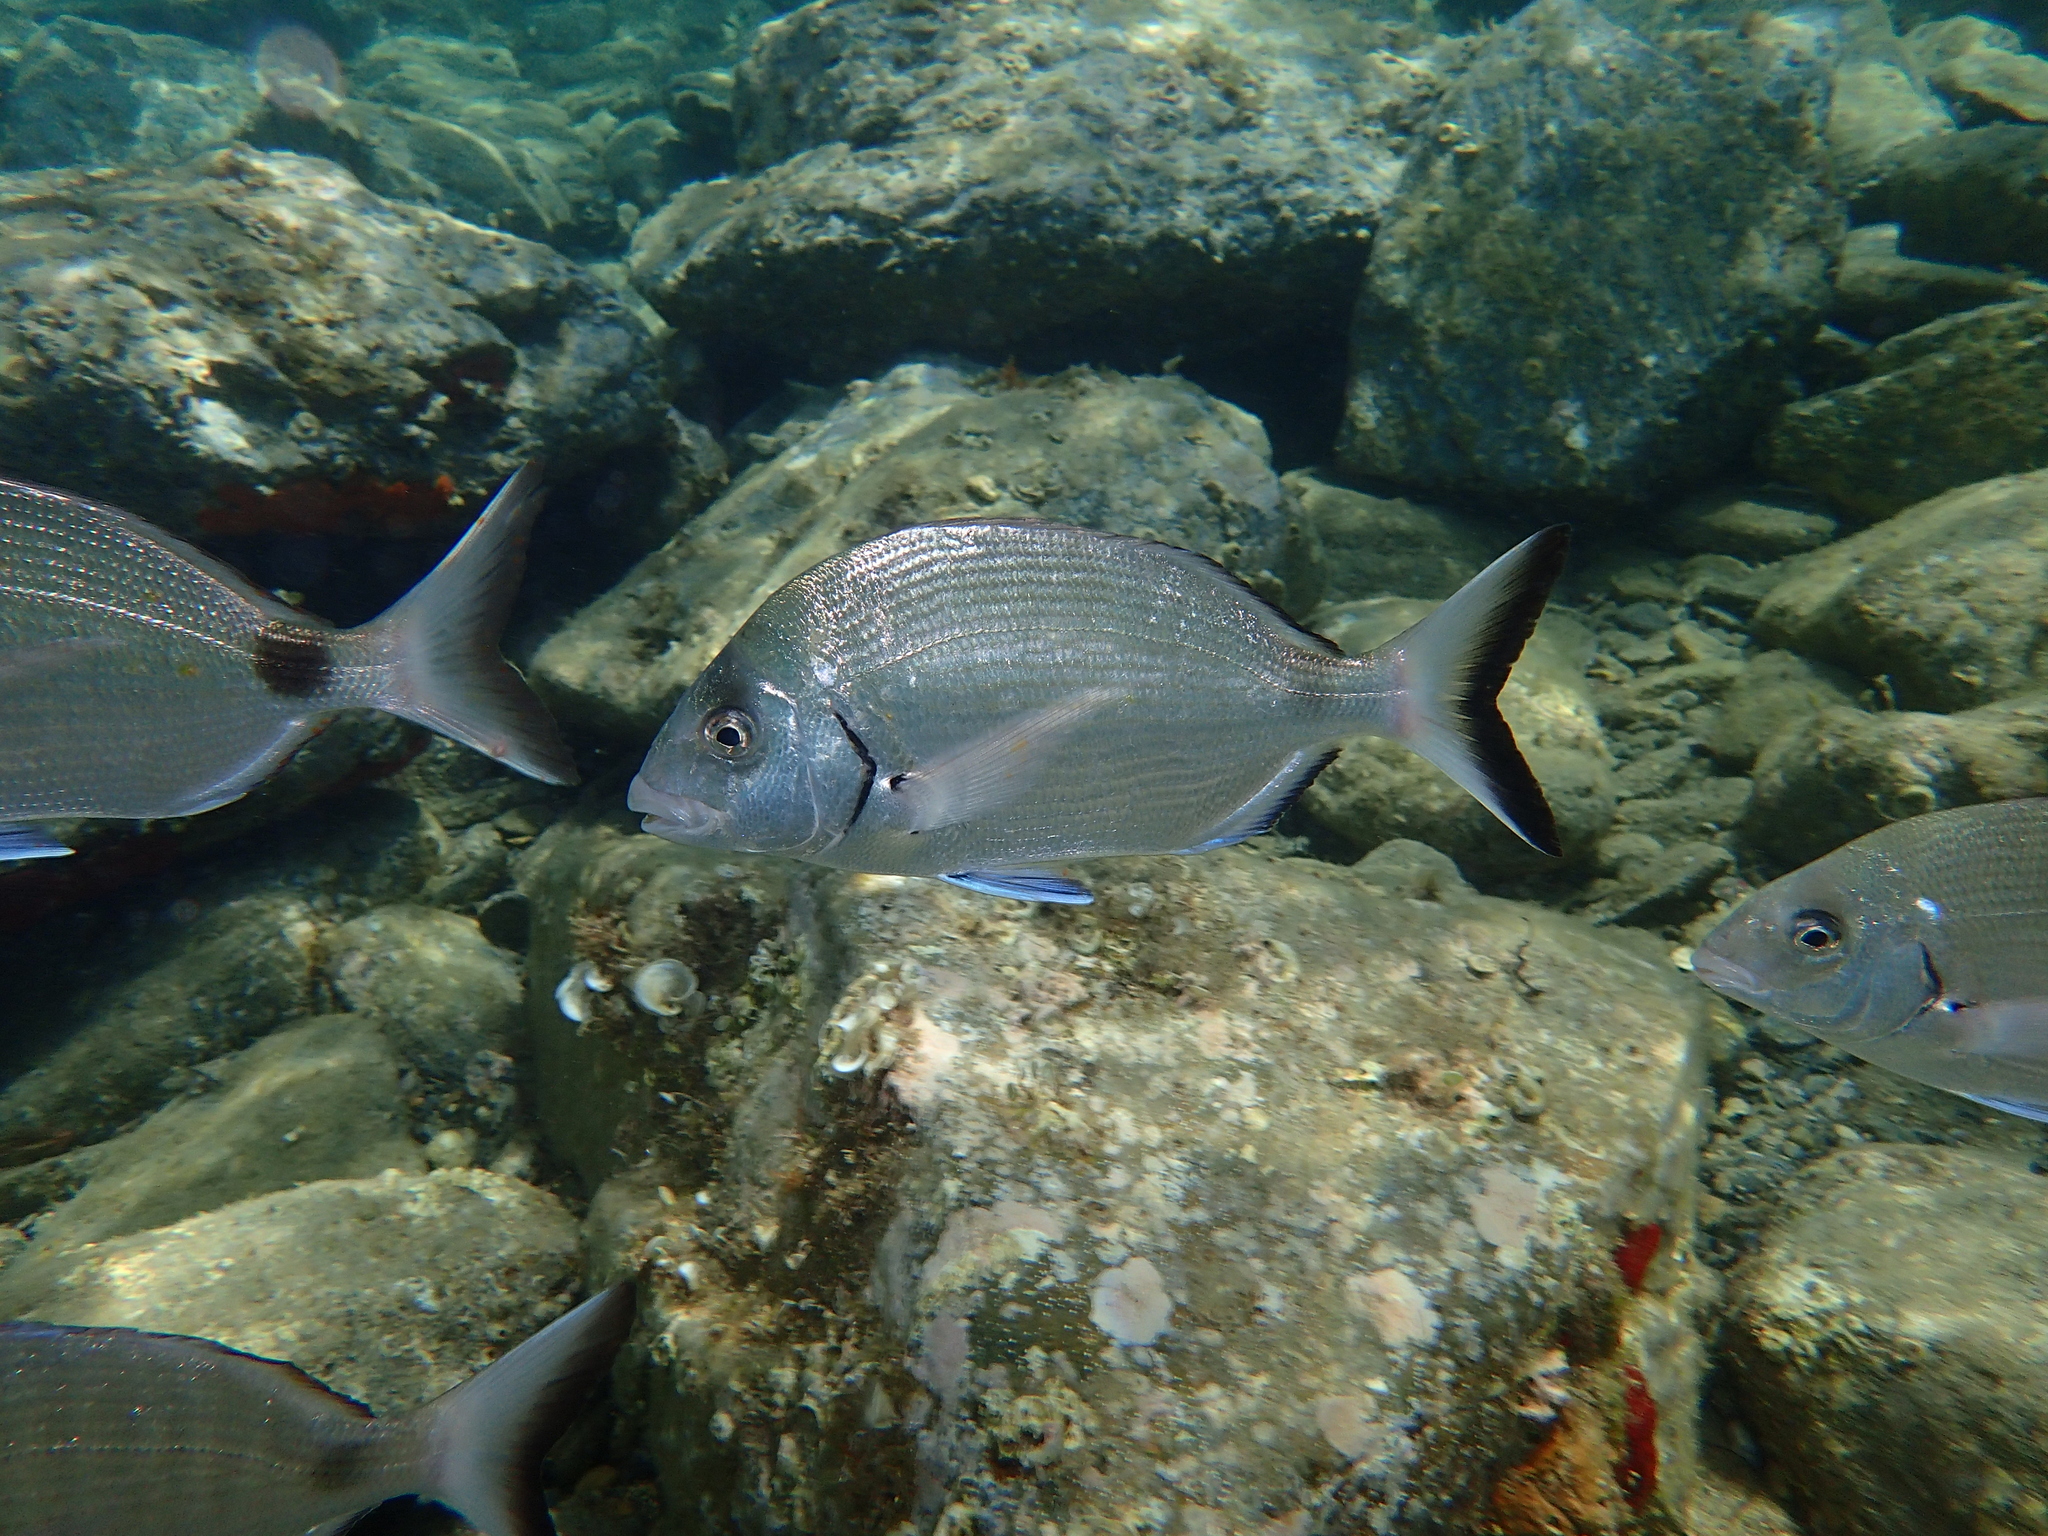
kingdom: Animalia
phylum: Chordata
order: Perciformes
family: Sparidae
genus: Diplodus
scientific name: Diplodus sargus
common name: White seabream
